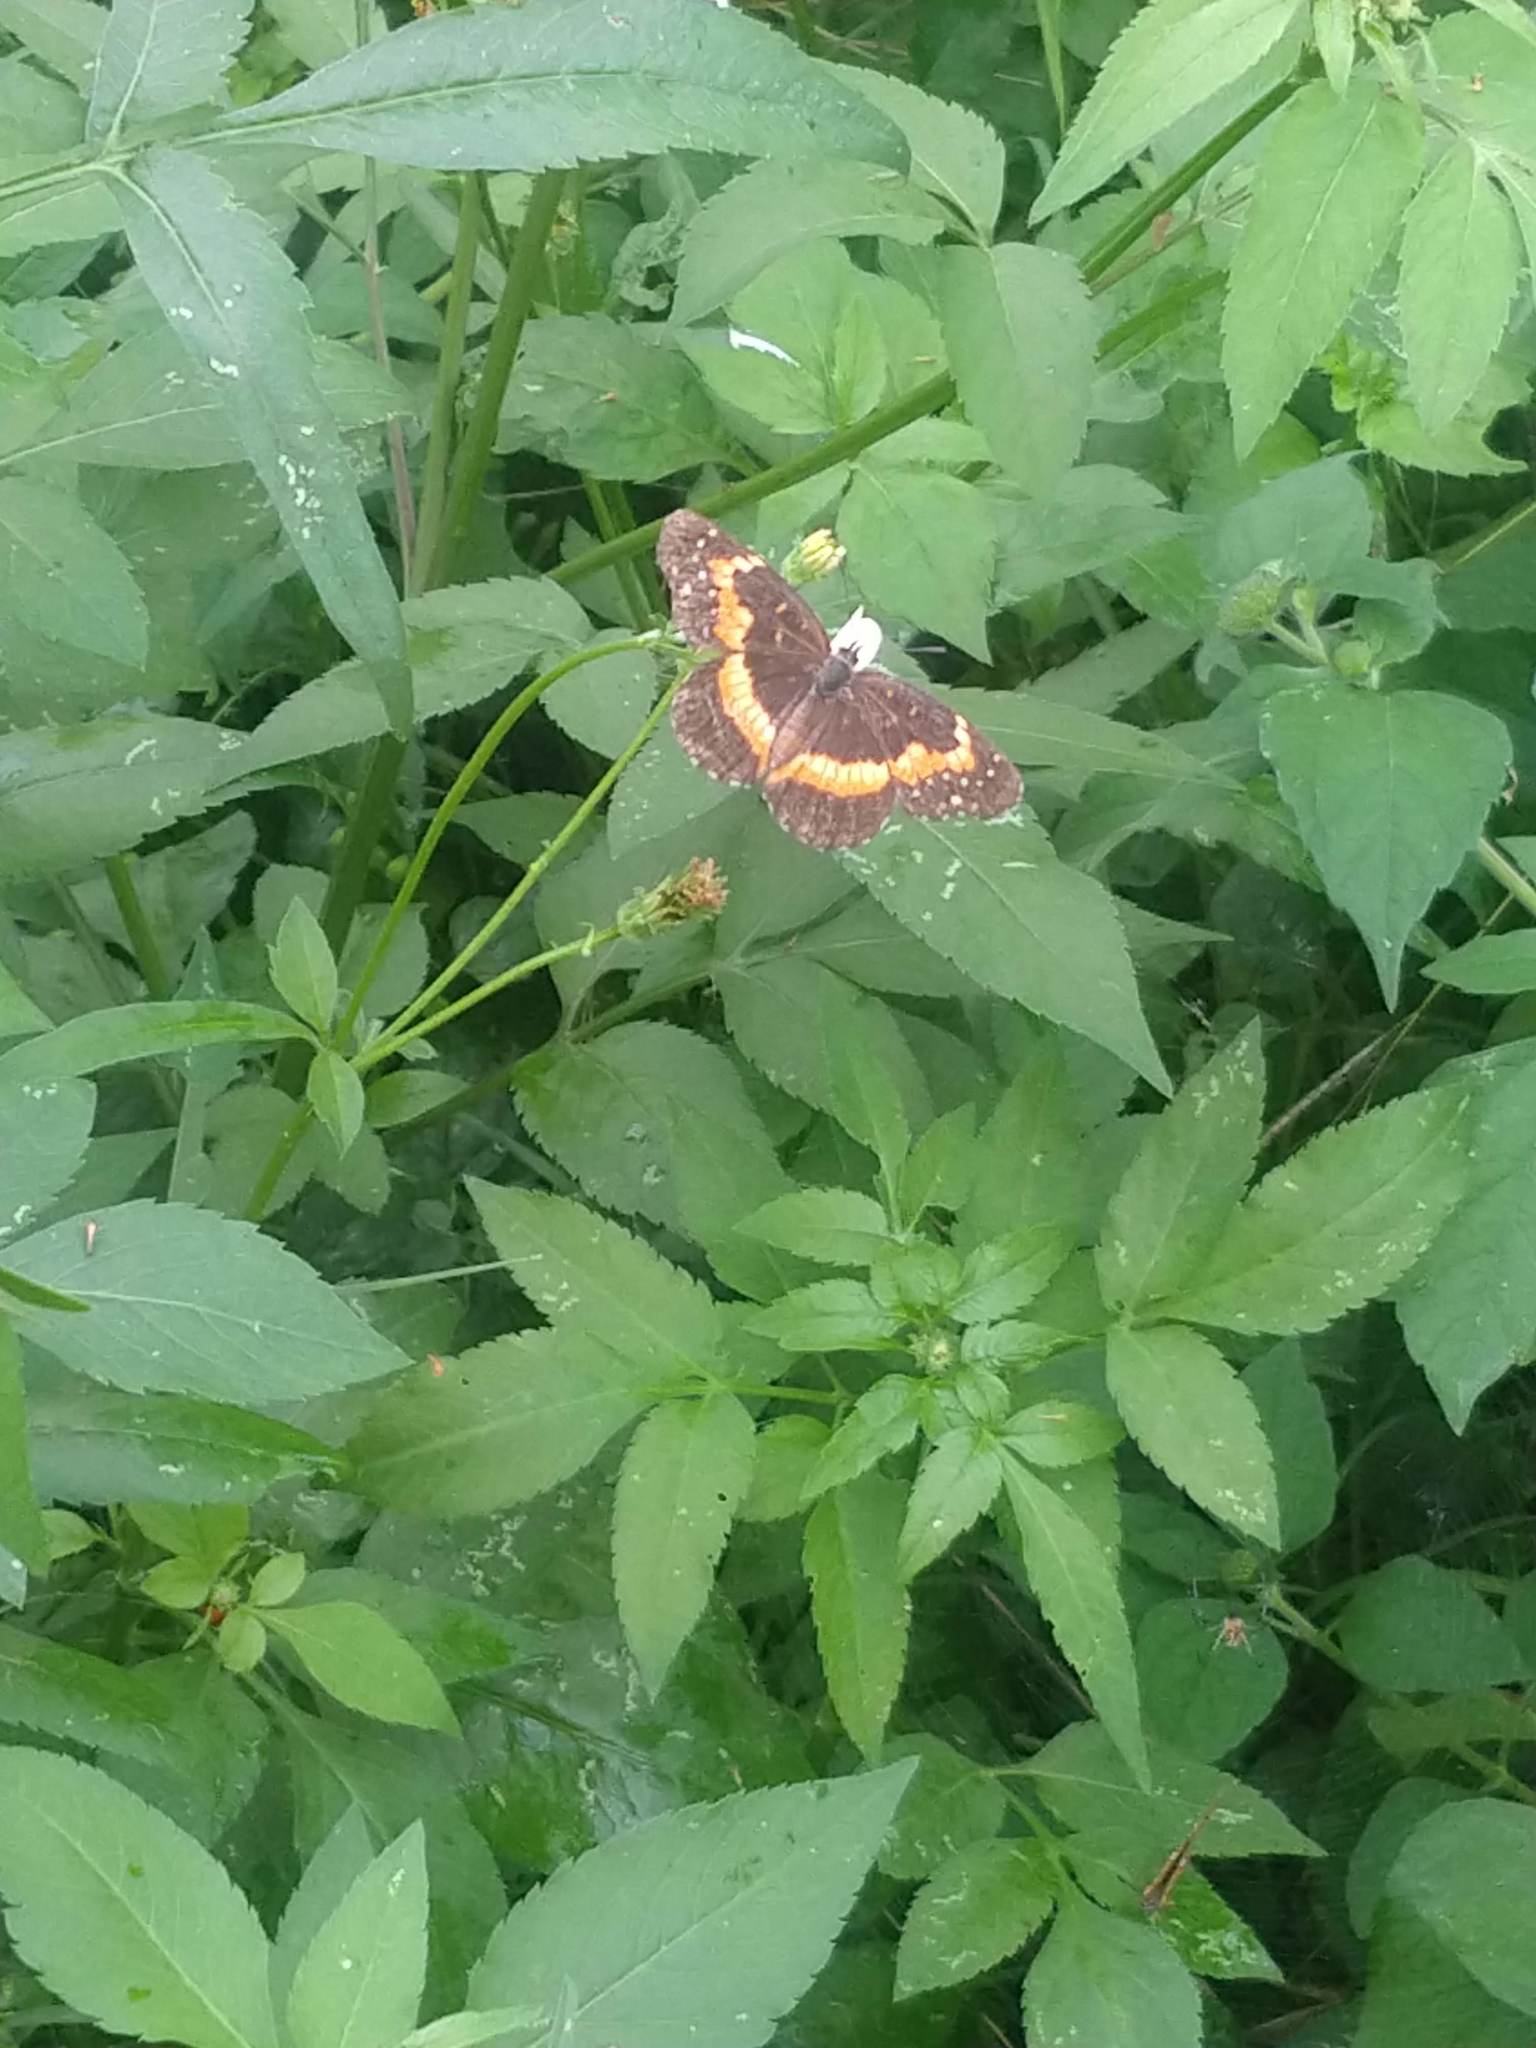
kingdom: Animalia
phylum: Arthropoda
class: Insecta
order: Lepidoptera
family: Nymphalidae
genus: Chlosyne
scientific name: Chlosyne lacinia
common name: Bordered patch
